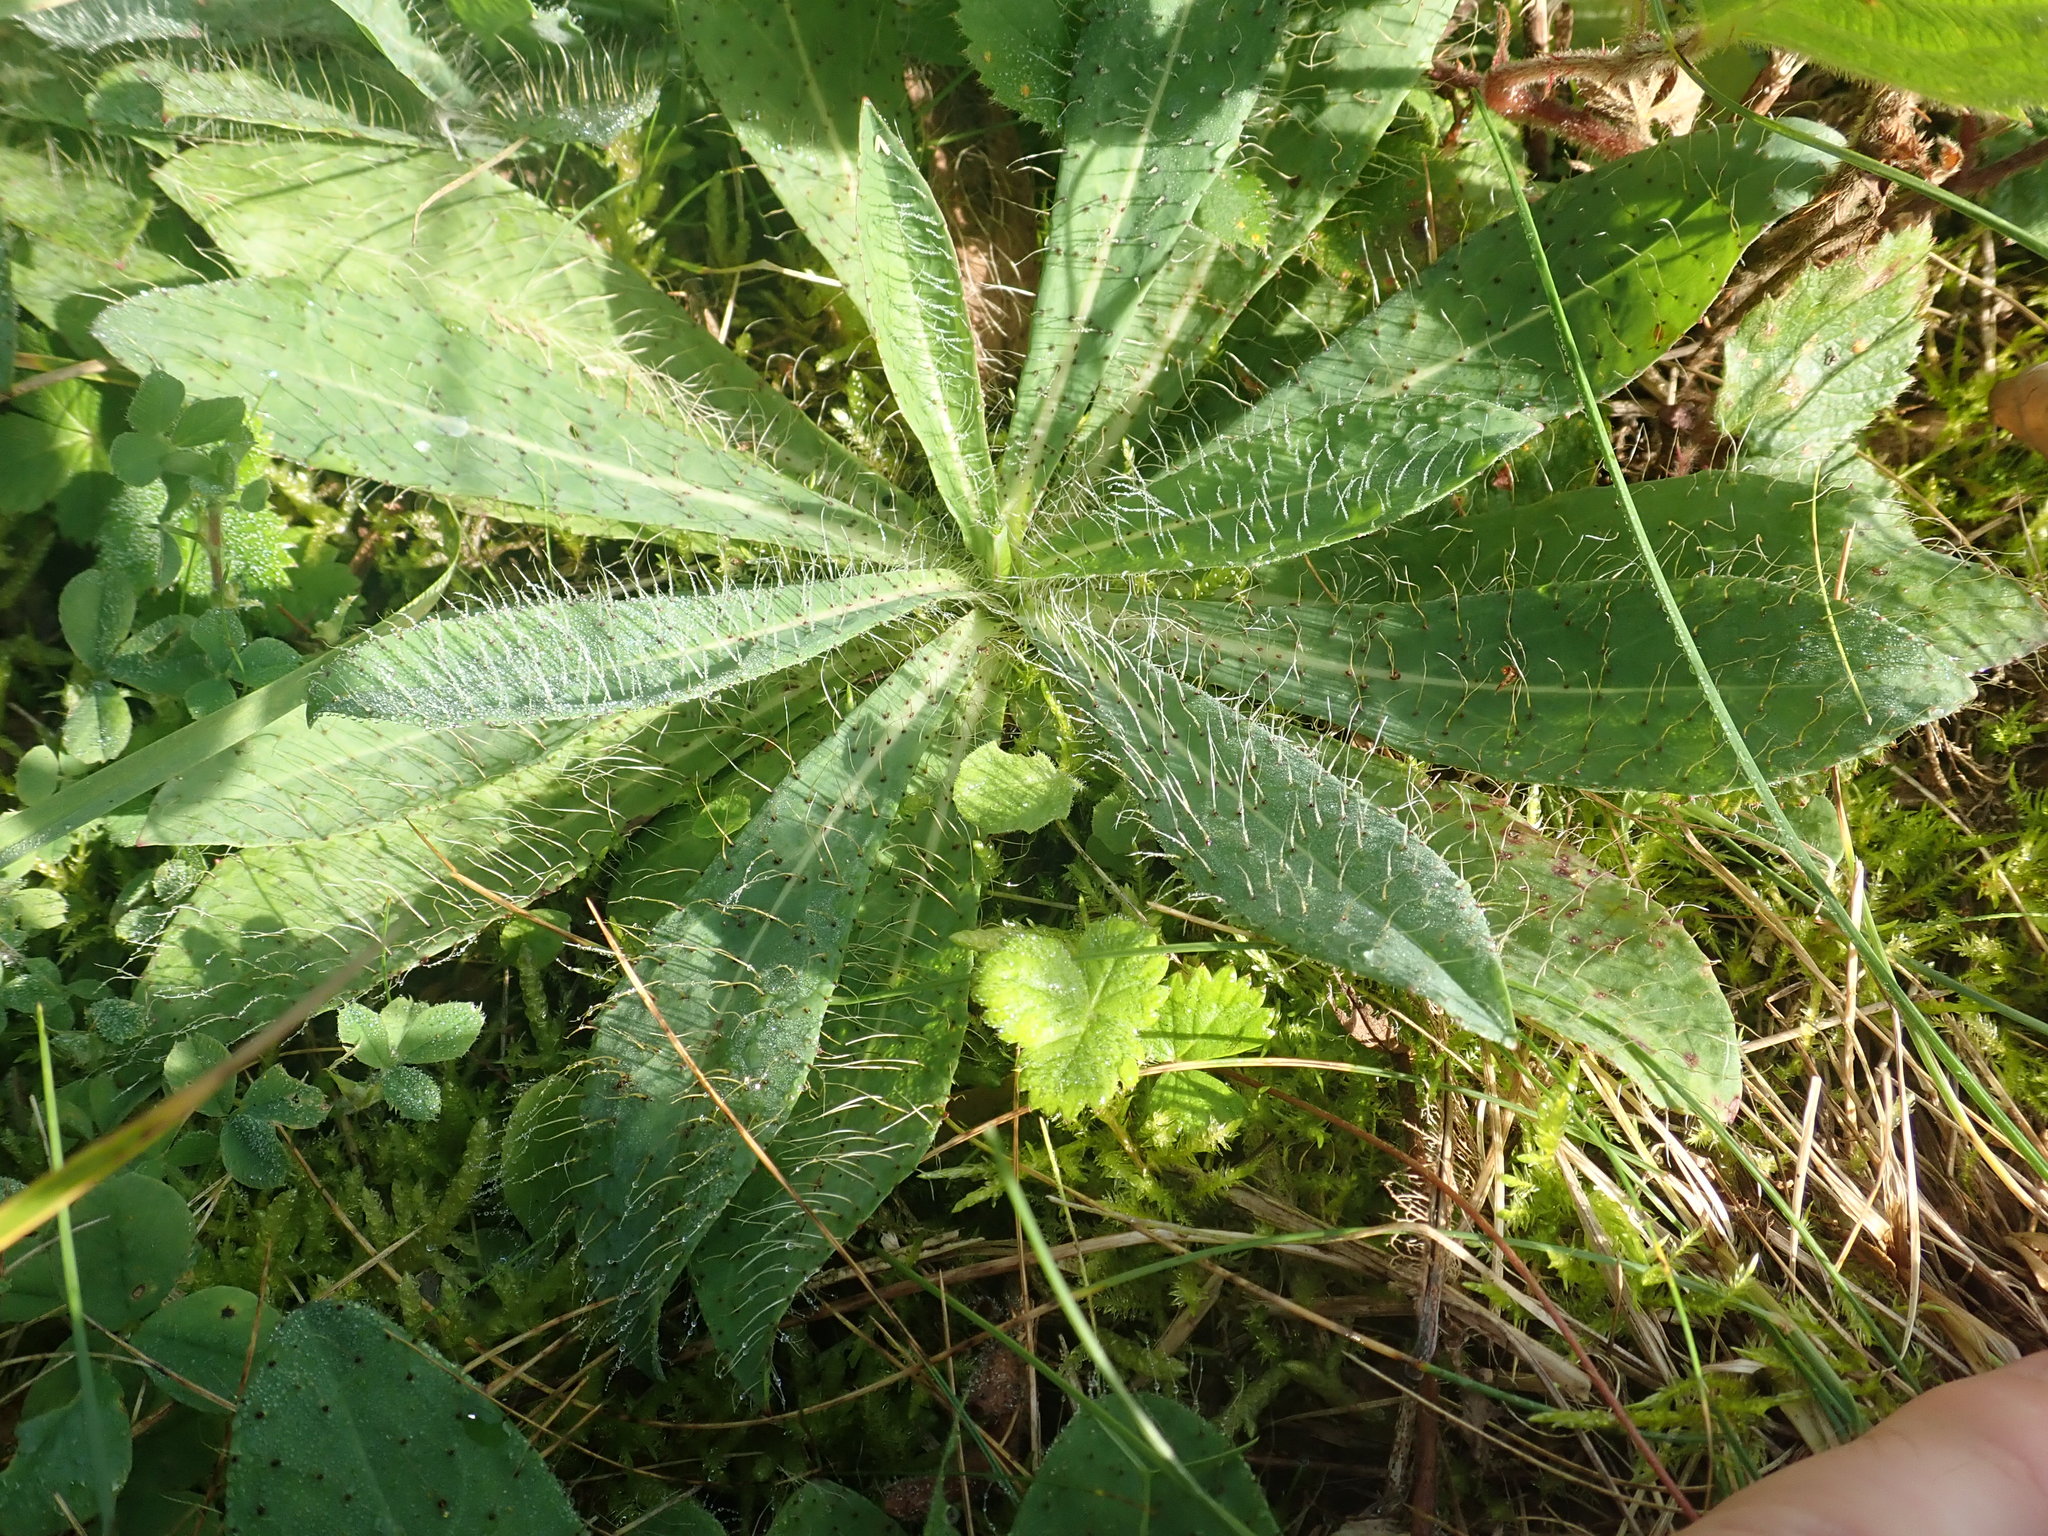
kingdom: Plantae
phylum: Tracheophyta
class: Magnoliopsida
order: Asterales
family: Asteraceae
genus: Pilosella
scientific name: Pilosella bauhini
